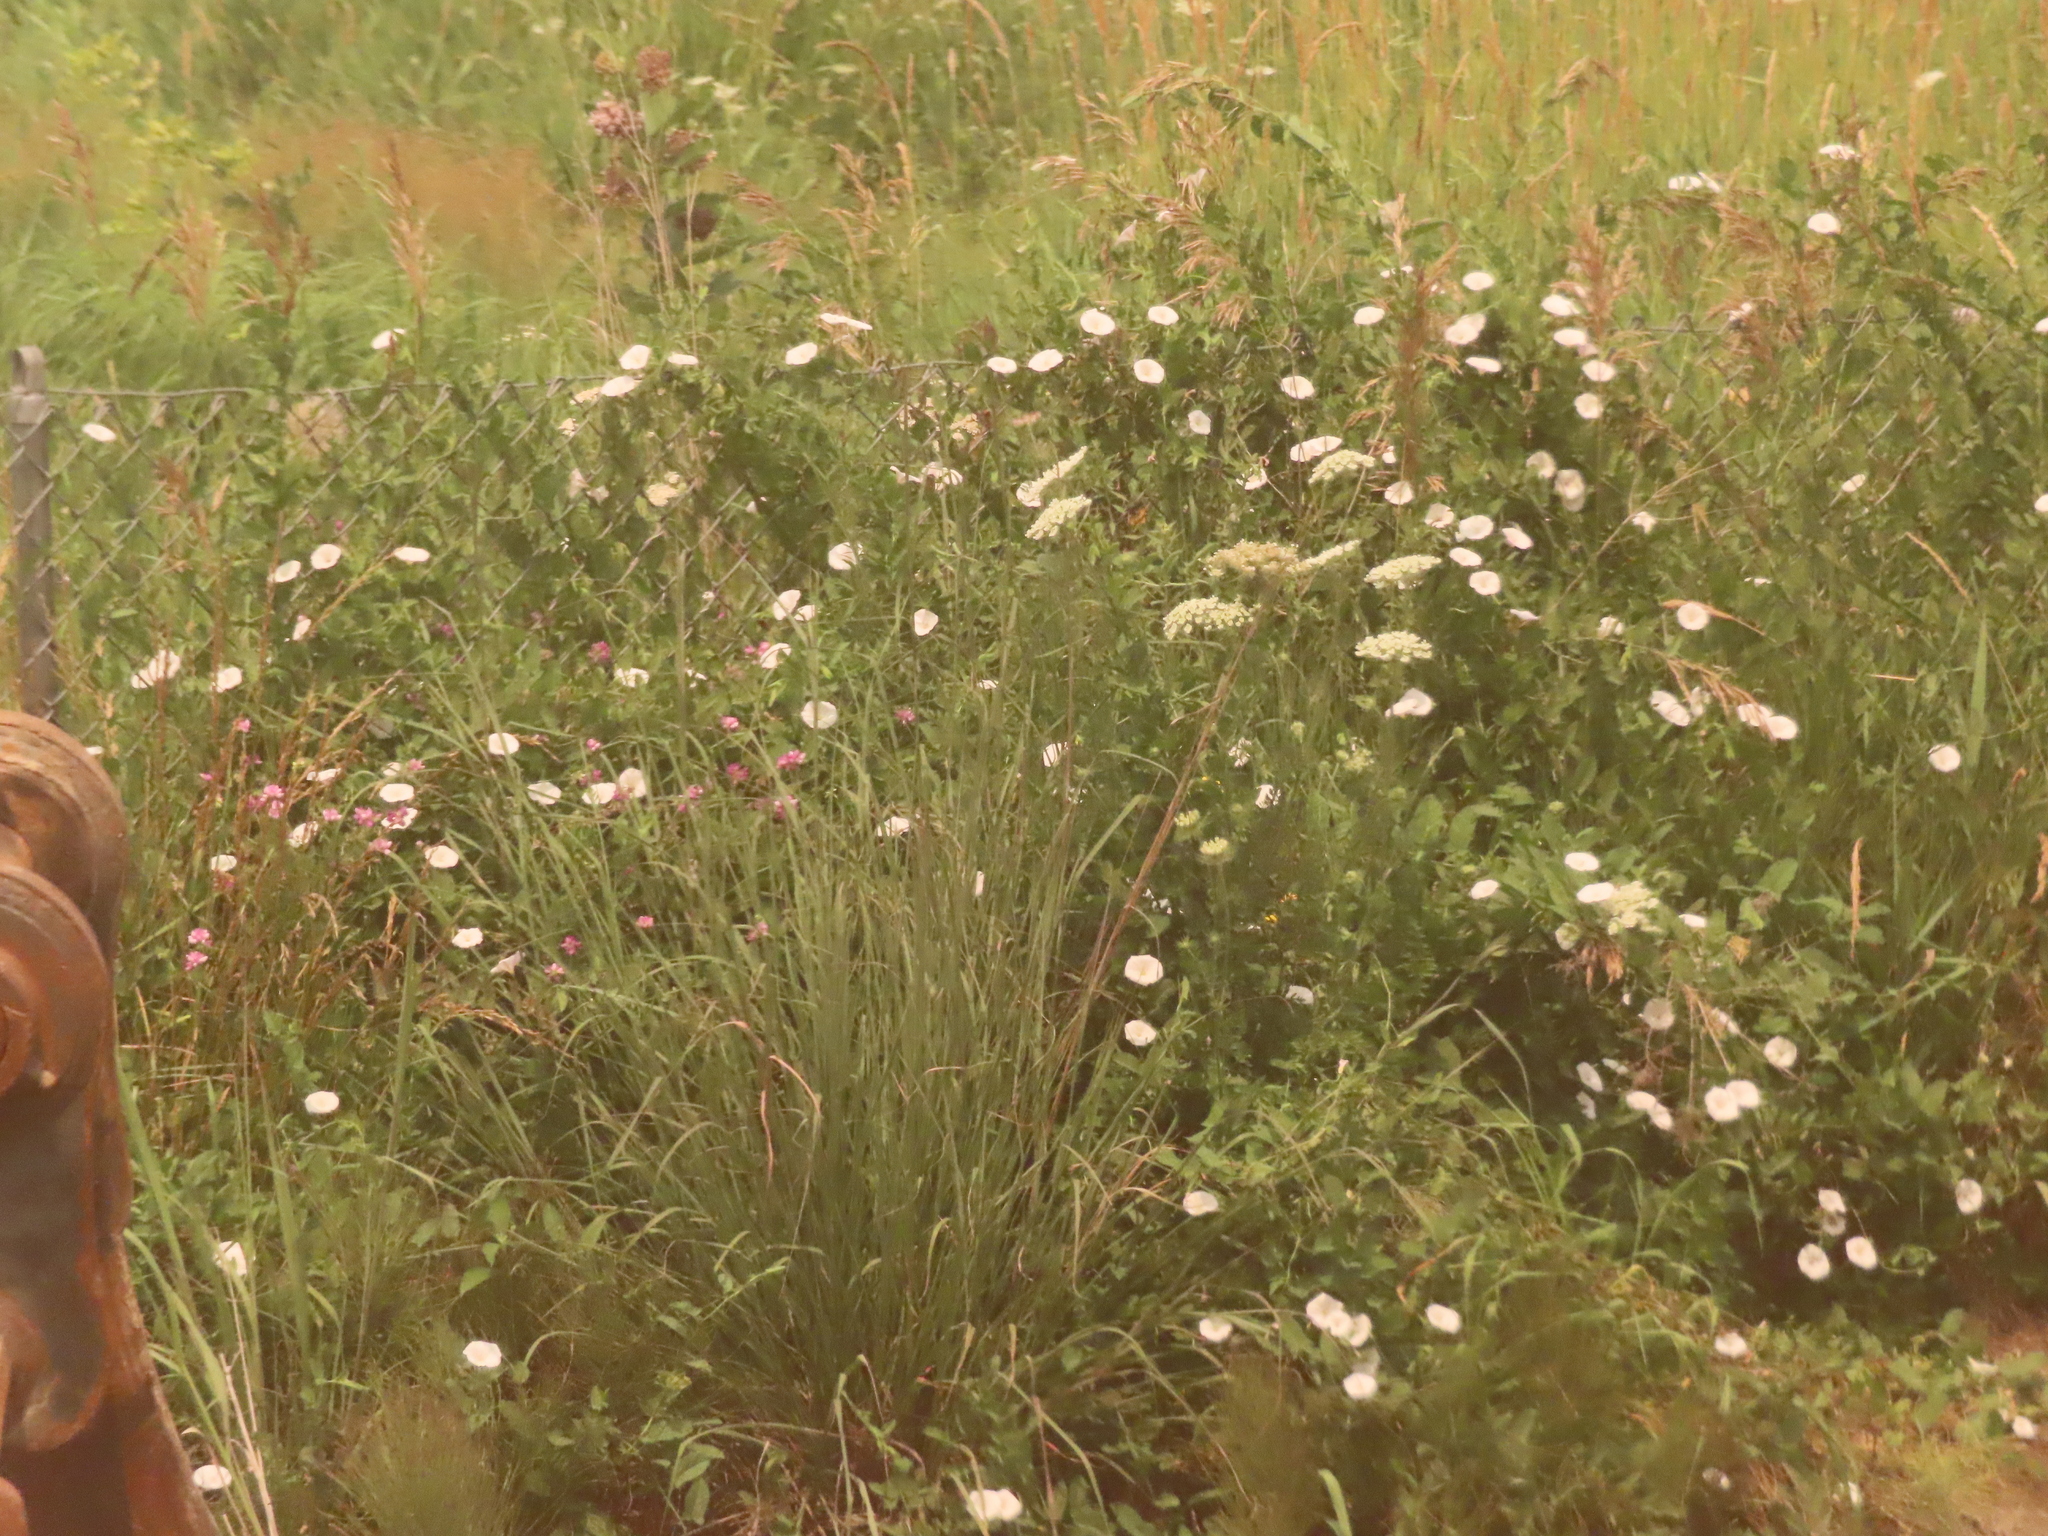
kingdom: Plantae
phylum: Tracheophyta
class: Magnoliopsida
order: Apiales
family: Apiaceae
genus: Daucus
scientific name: Daucus carota
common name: Wild carrot
